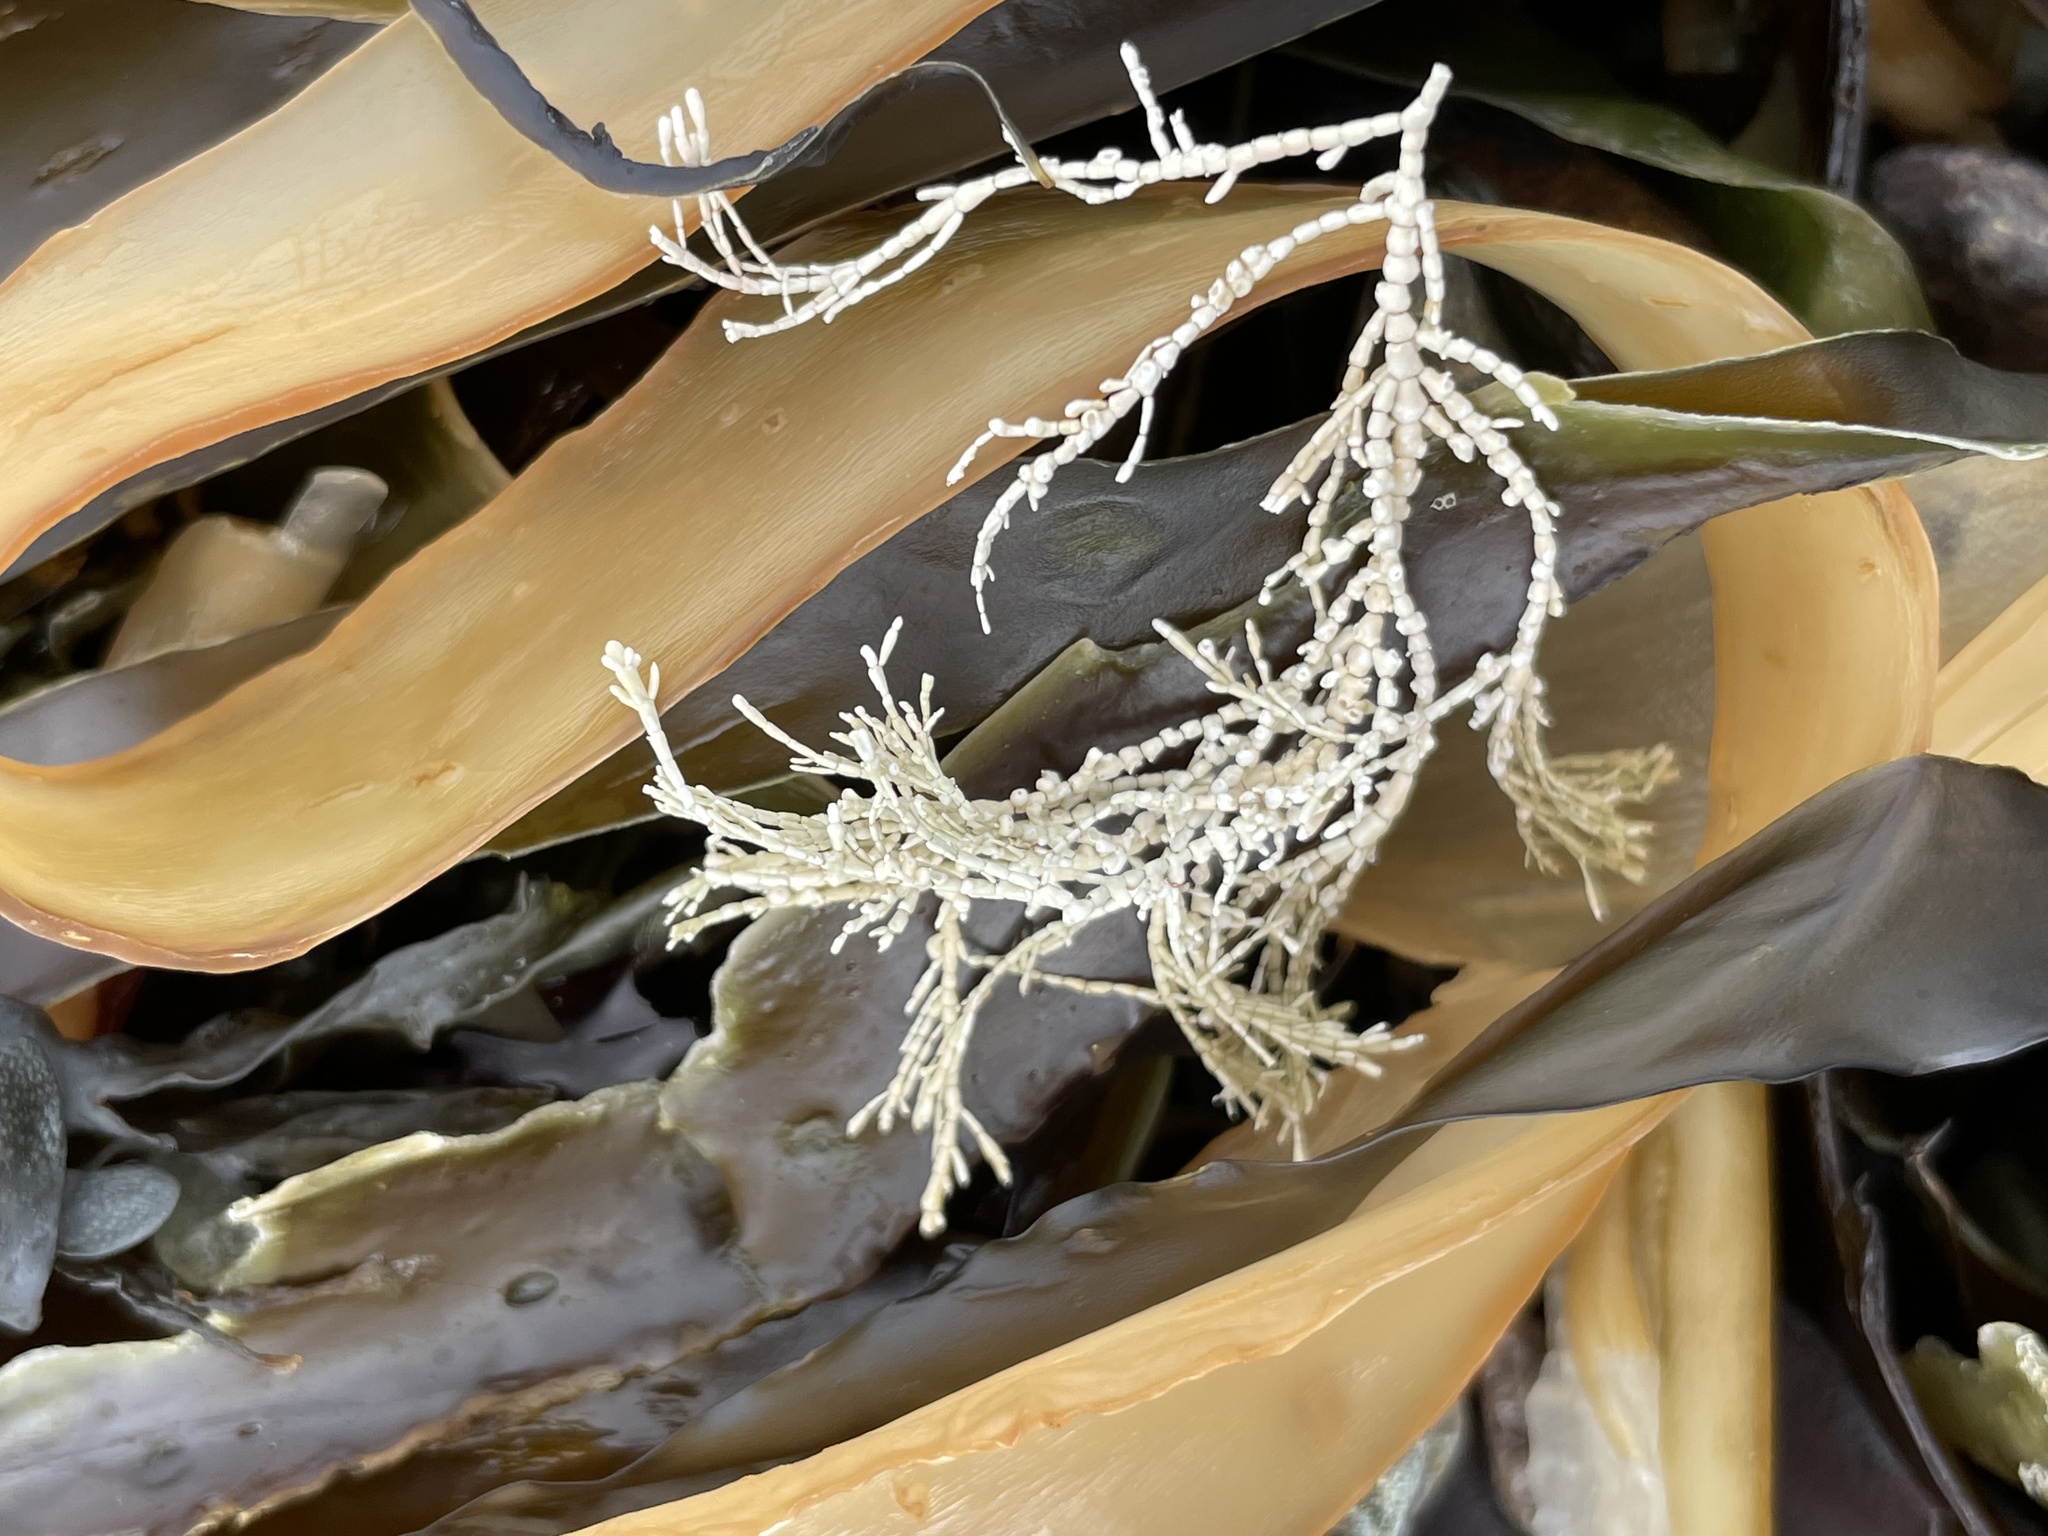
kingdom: Plantae
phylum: Rhodophyta
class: Florideophyceae
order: Corallinales
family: Corallinaceae
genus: Corallina
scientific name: Corallina officinalis
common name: Coral weed
